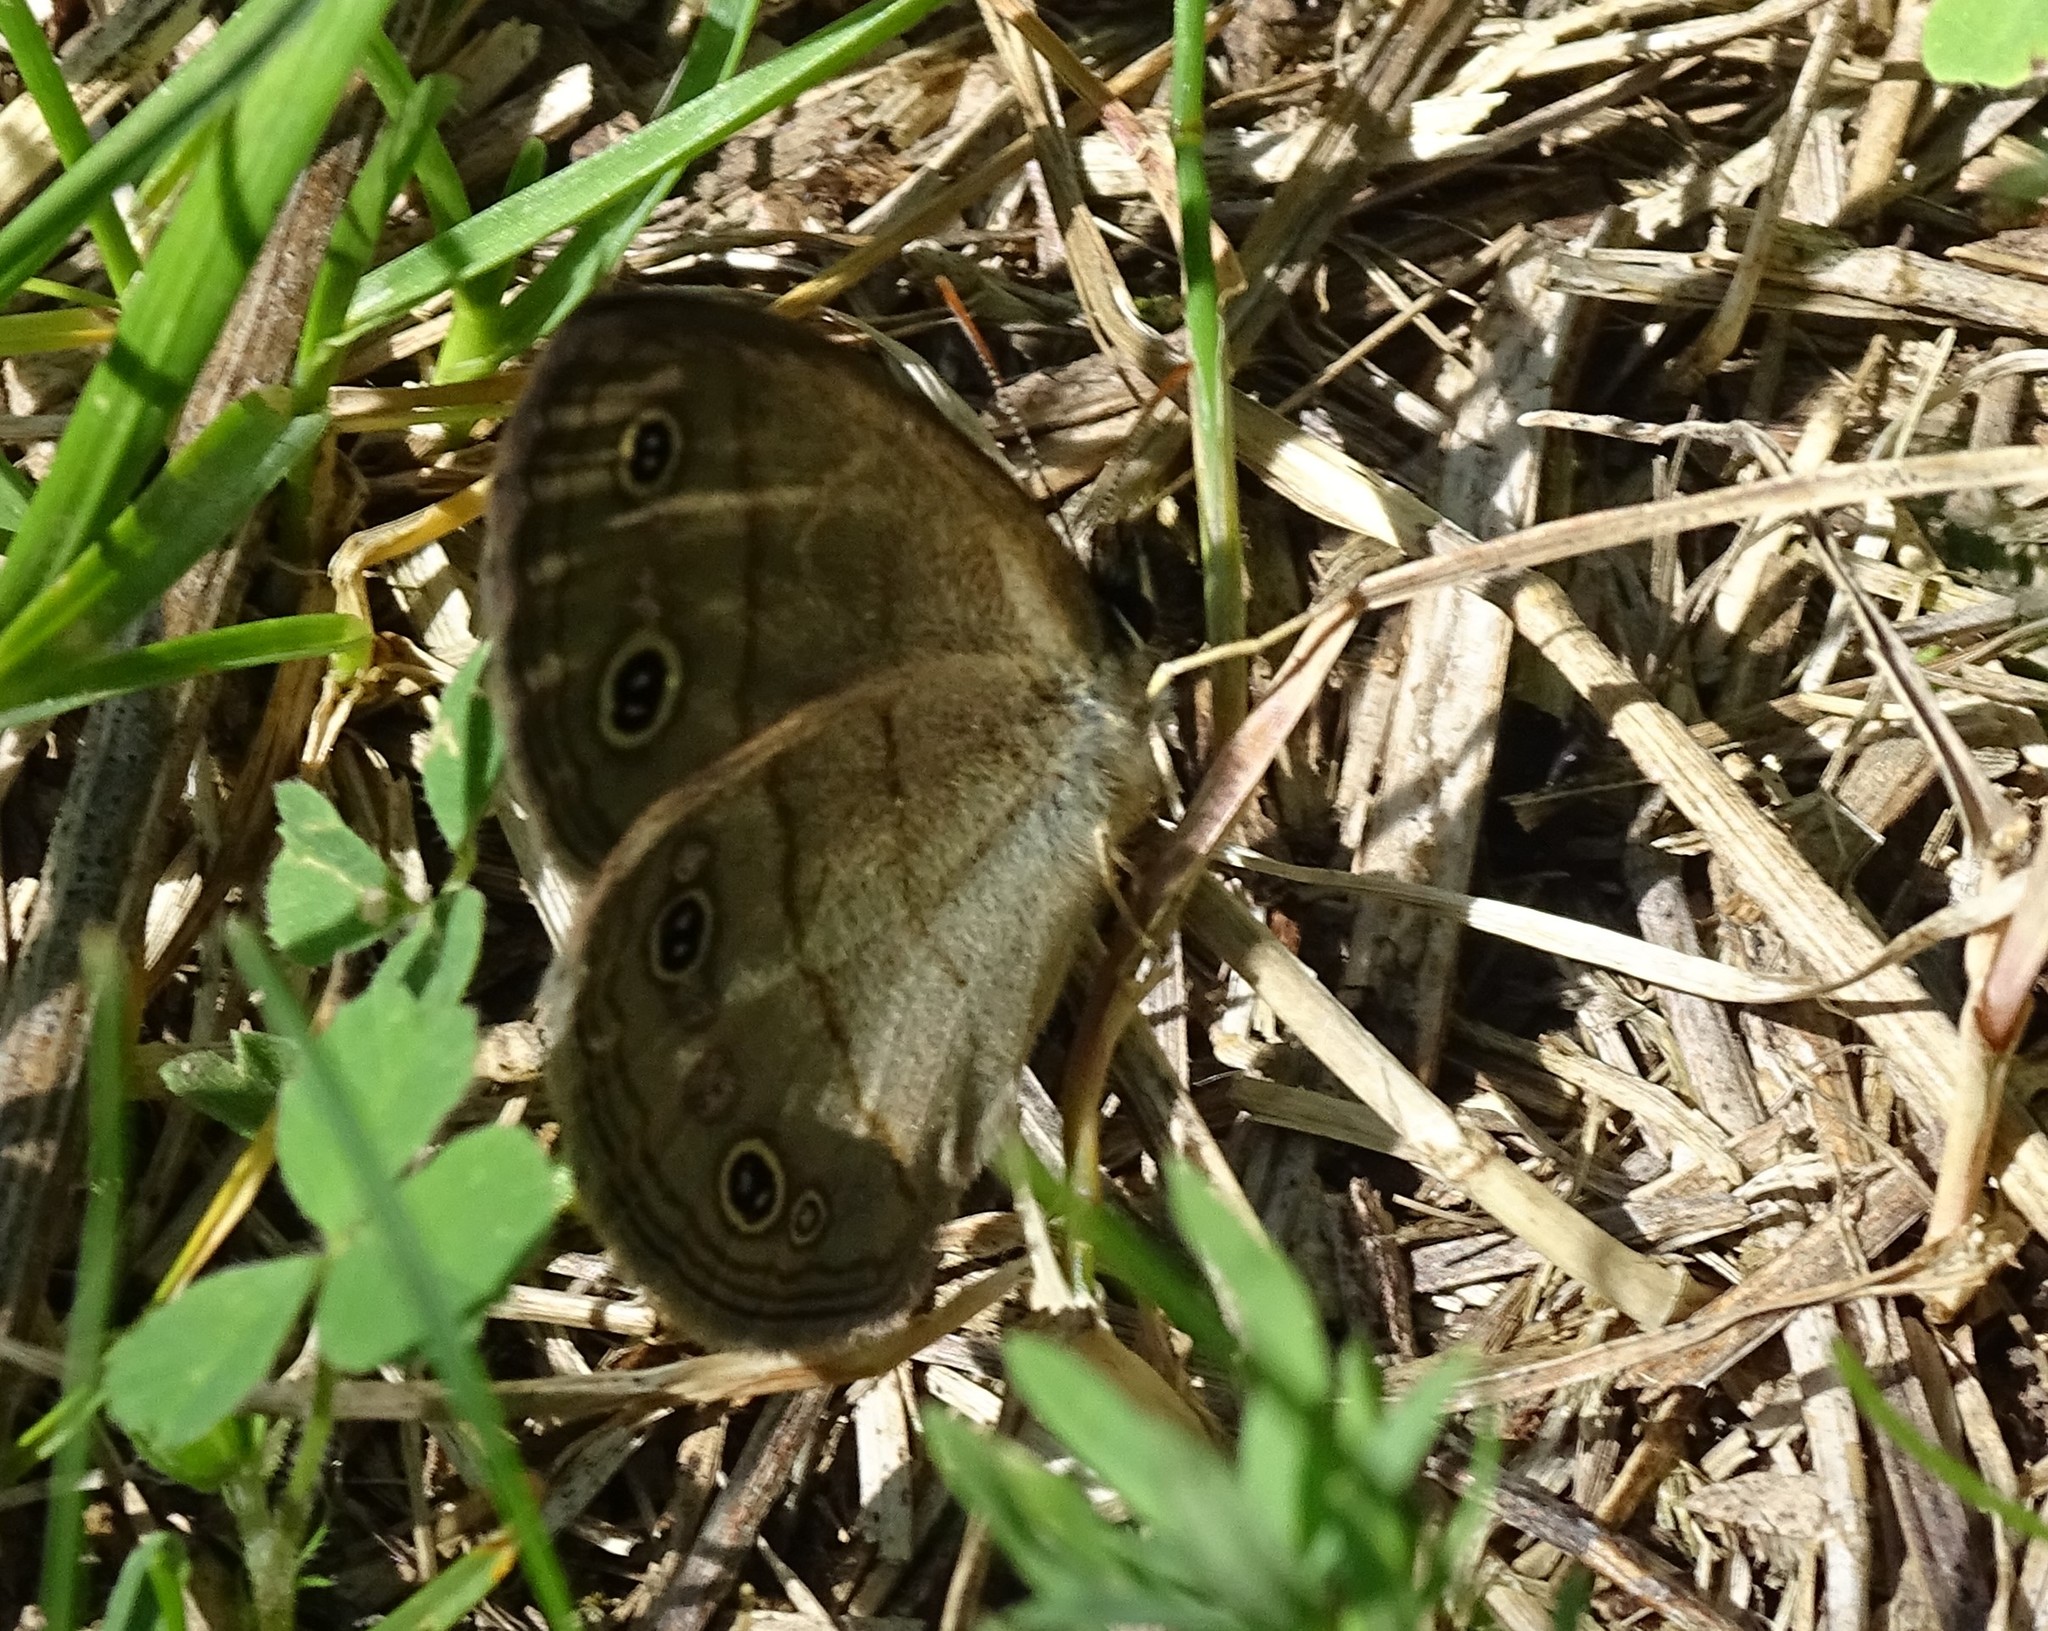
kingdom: Animalia
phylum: Arthropoda
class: Insecta
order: Lepidoptera
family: Nymphalidae
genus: Euptychia
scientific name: Euptychia cymela
